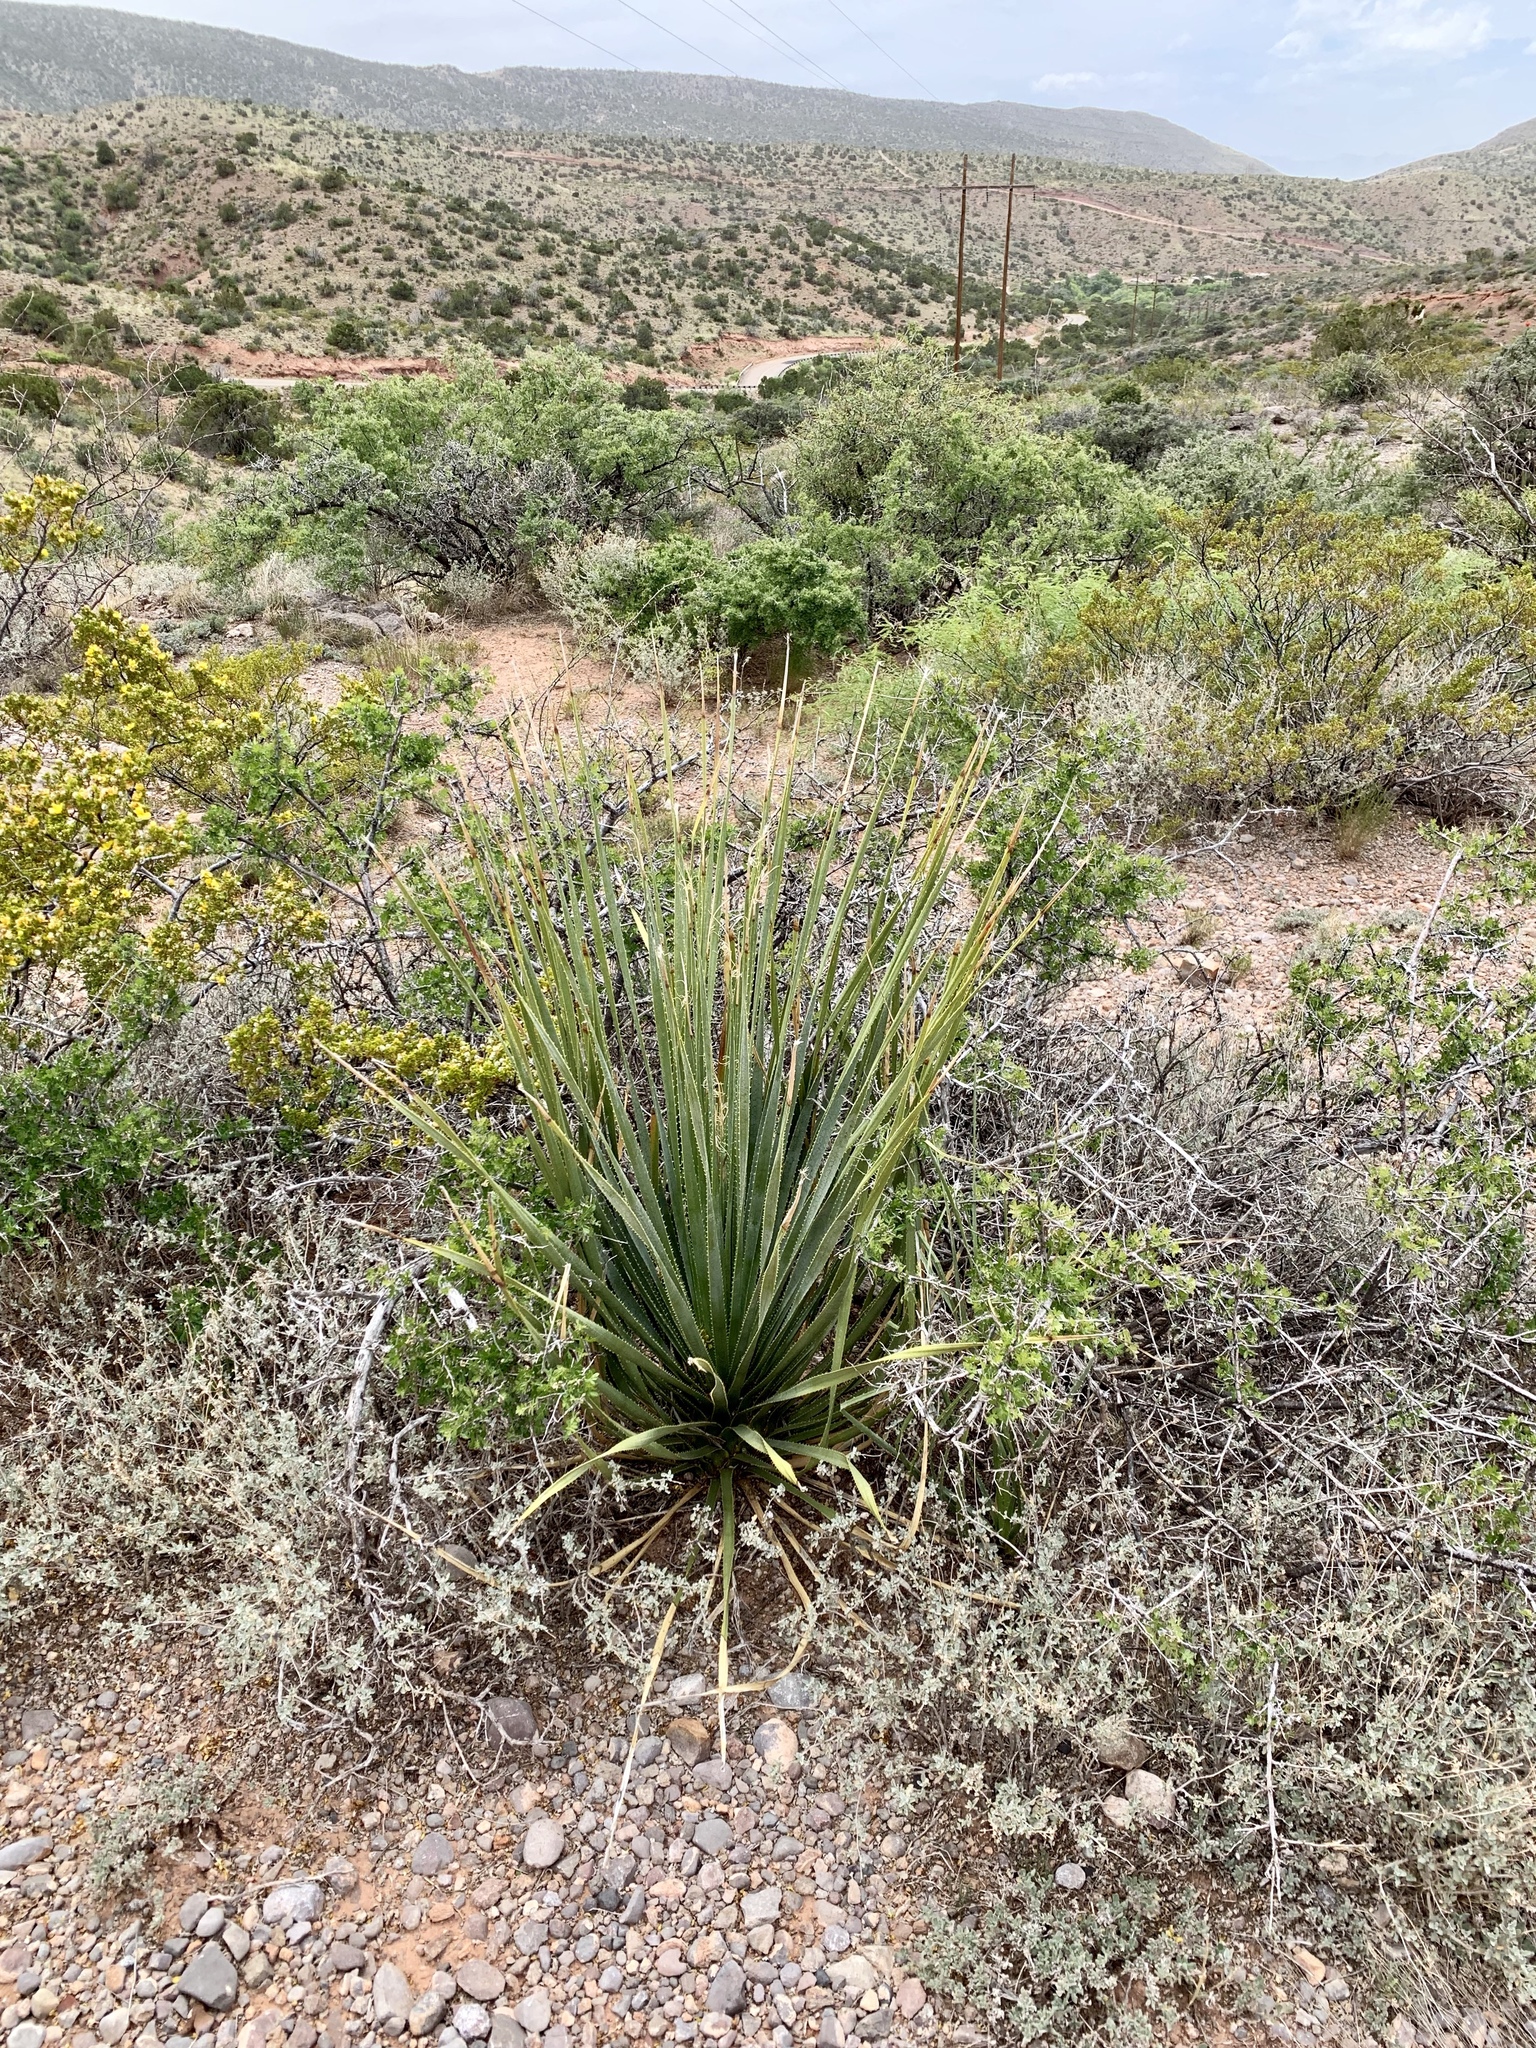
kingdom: Plantae
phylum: Tracheophyta
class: Liliopsida
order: Asparagales
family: Asparagaceae
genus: Dasylirion
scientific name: Dasylirion wheeleri
